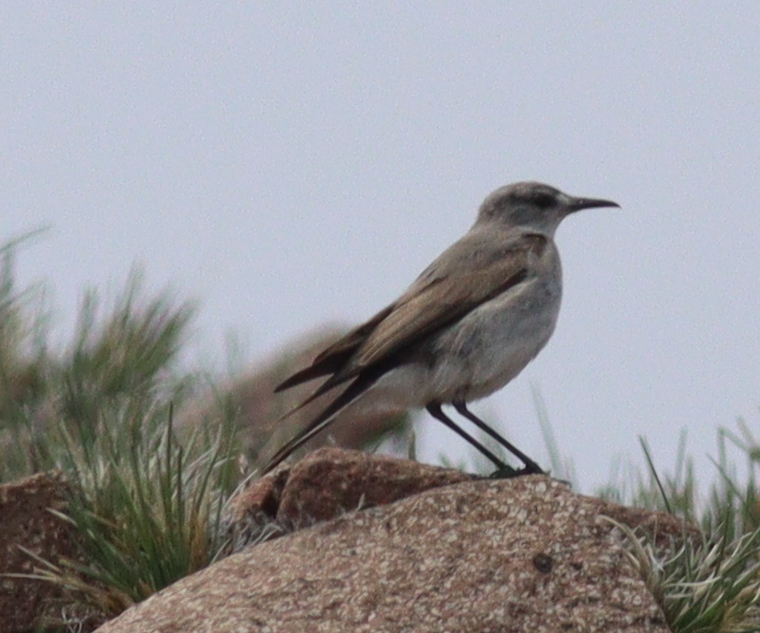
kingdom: Animalia
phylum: Chordata
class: Aves
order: Passeriformes
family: Tyrannidae
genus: Muscisaxicola
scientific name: Muscisaxicola frontalis
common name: Black-fronted ground tyrant
